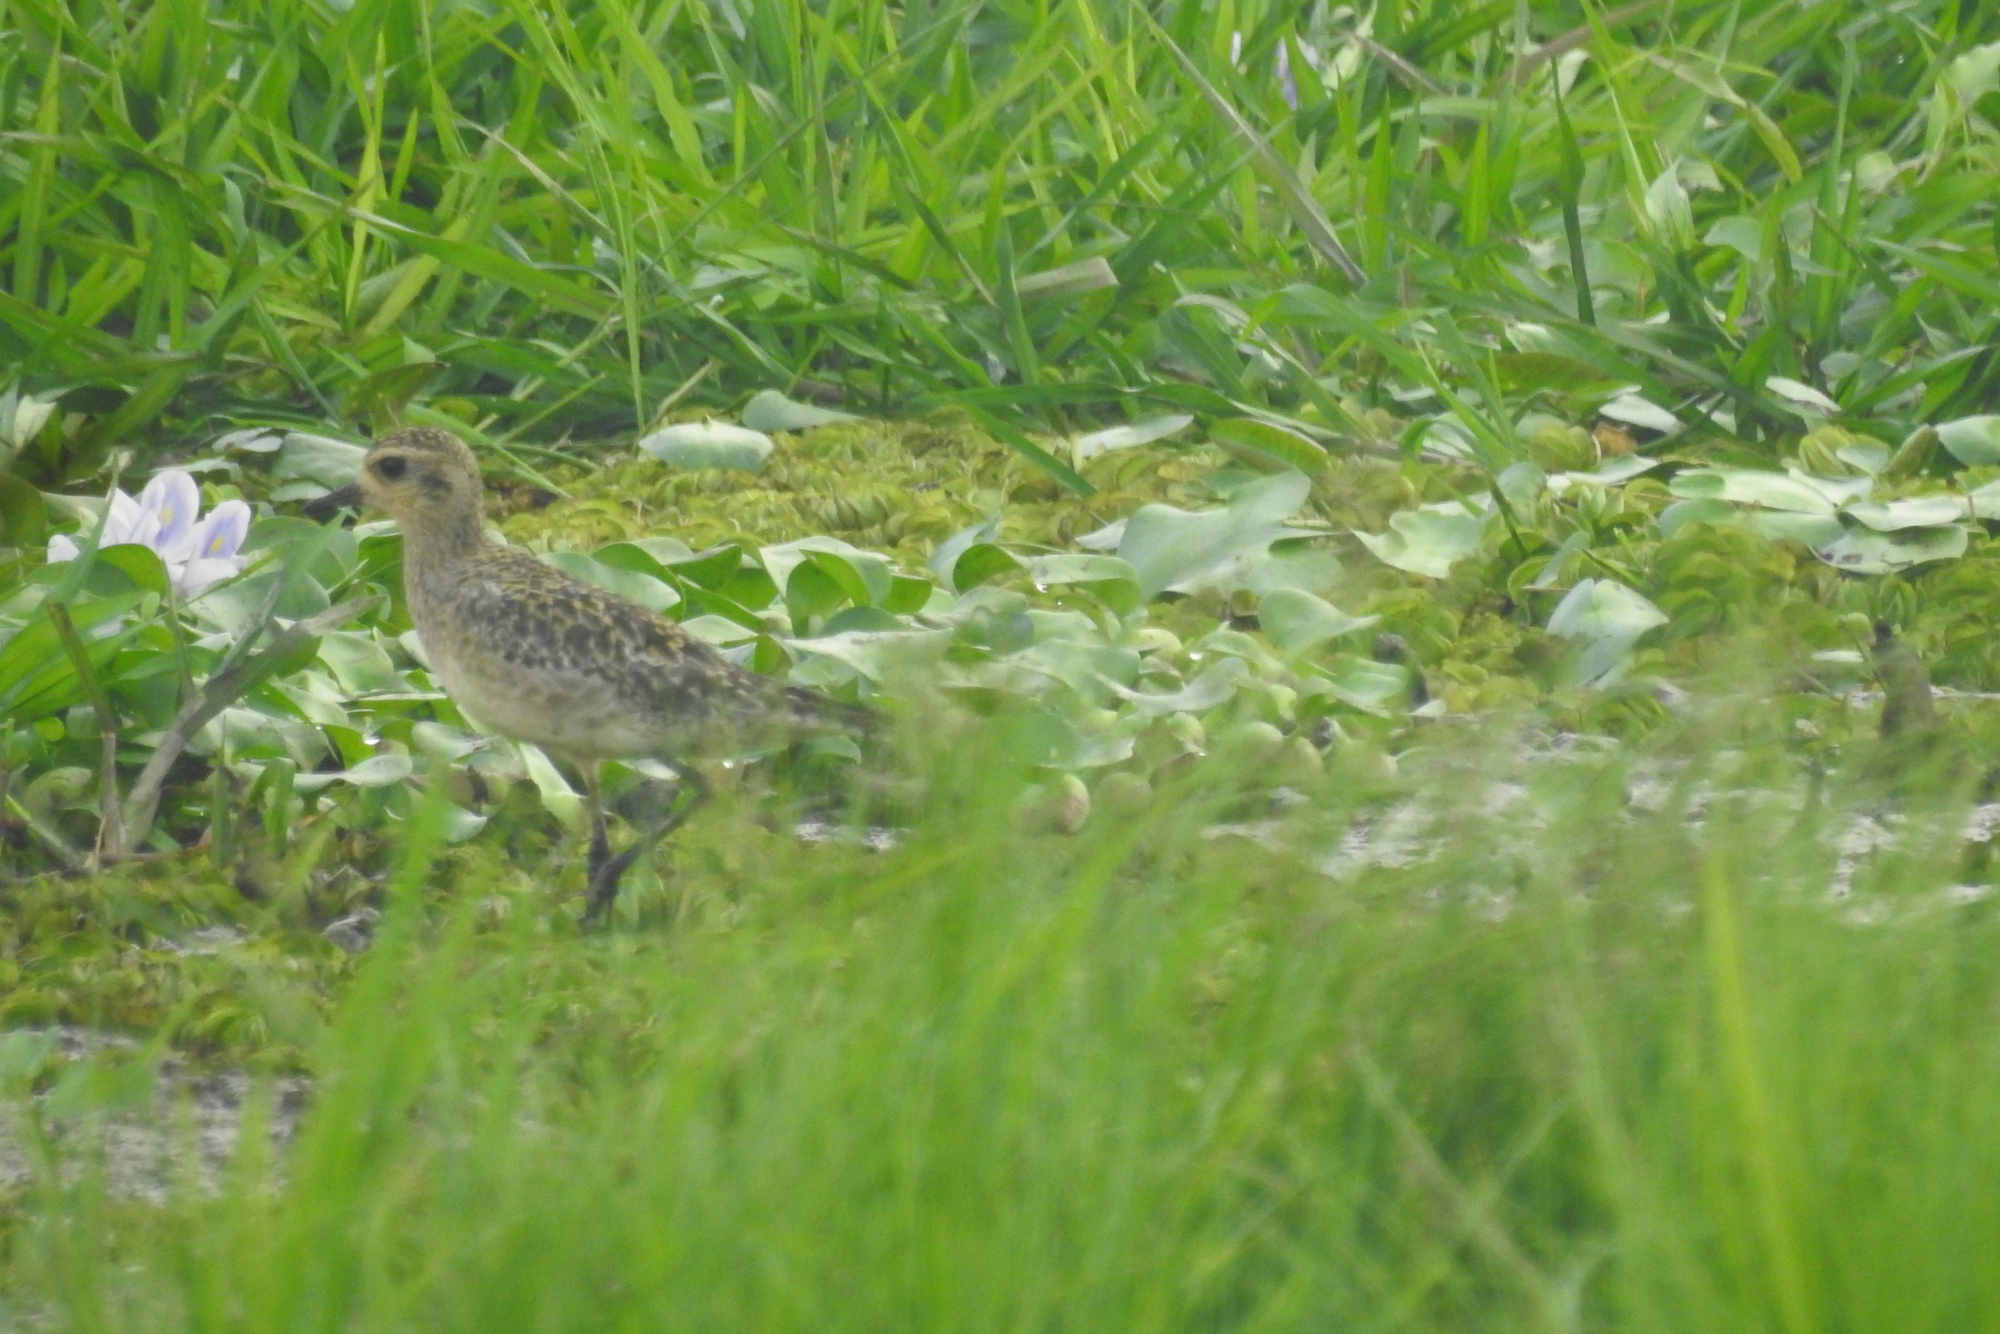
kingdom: Animalia
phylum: Chordata
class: Aves
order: Charadriiformes
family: Charadriidae
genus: Pluvialis
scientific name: Pluvialis fulva
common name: Pacific golden plover
